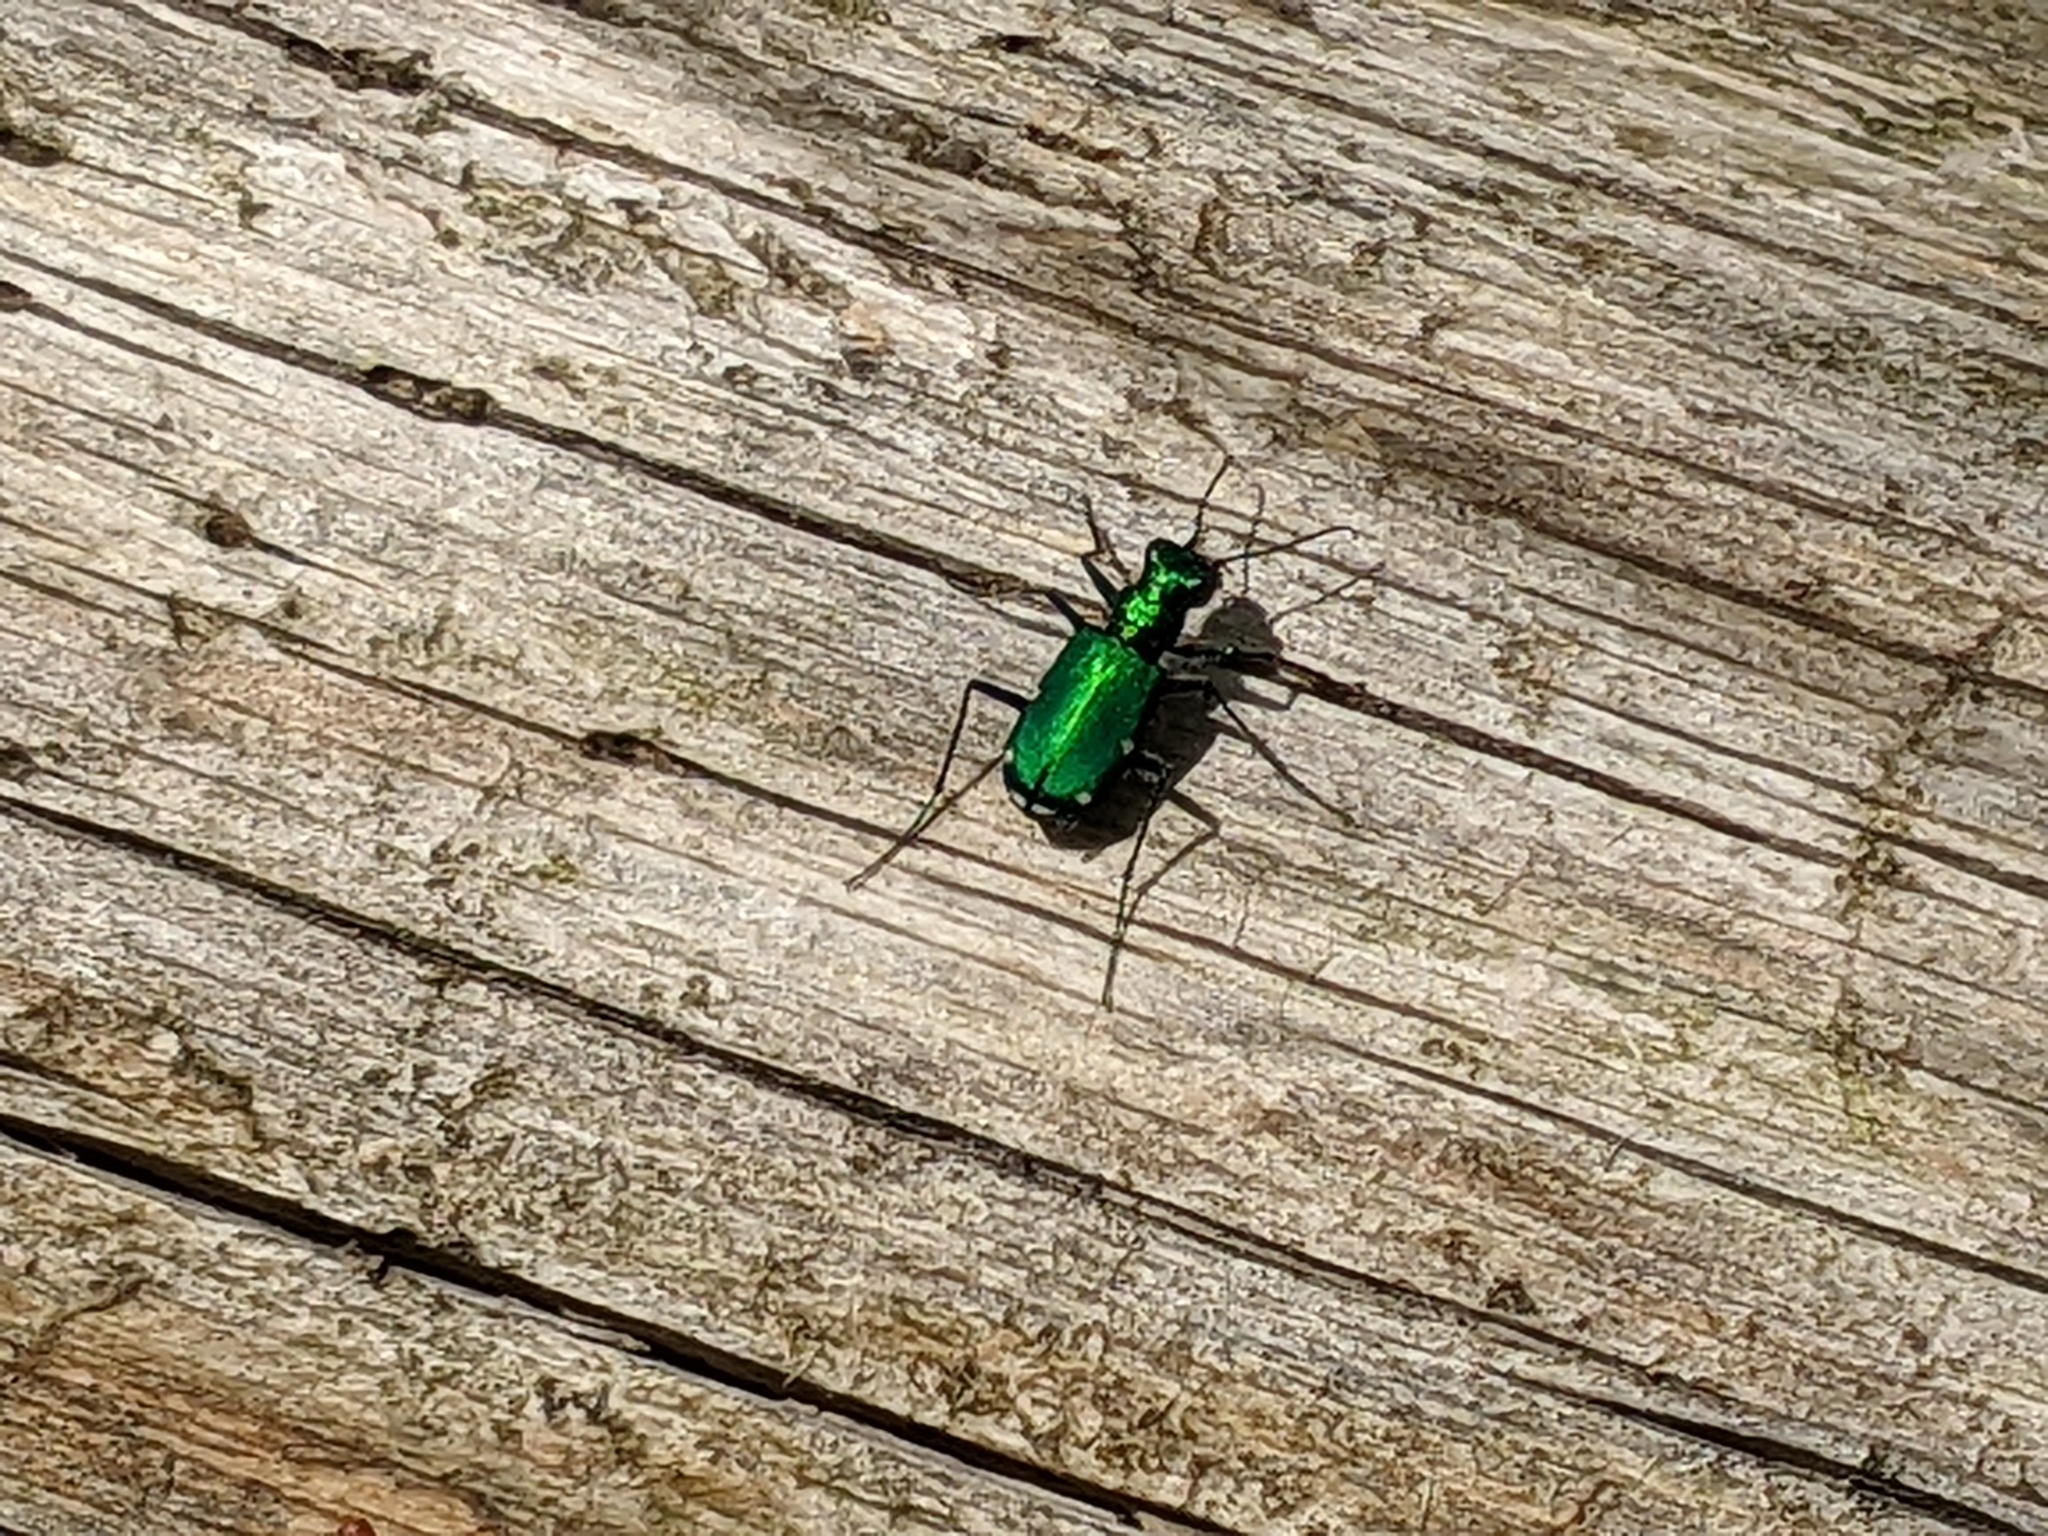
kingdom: Animalia
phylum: Arthropoda
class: Insecta
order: Coleoptera
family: Carabidae
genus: Cicindela
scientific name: Cicindela sexguttata
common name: Six-spotted tiger beetle
